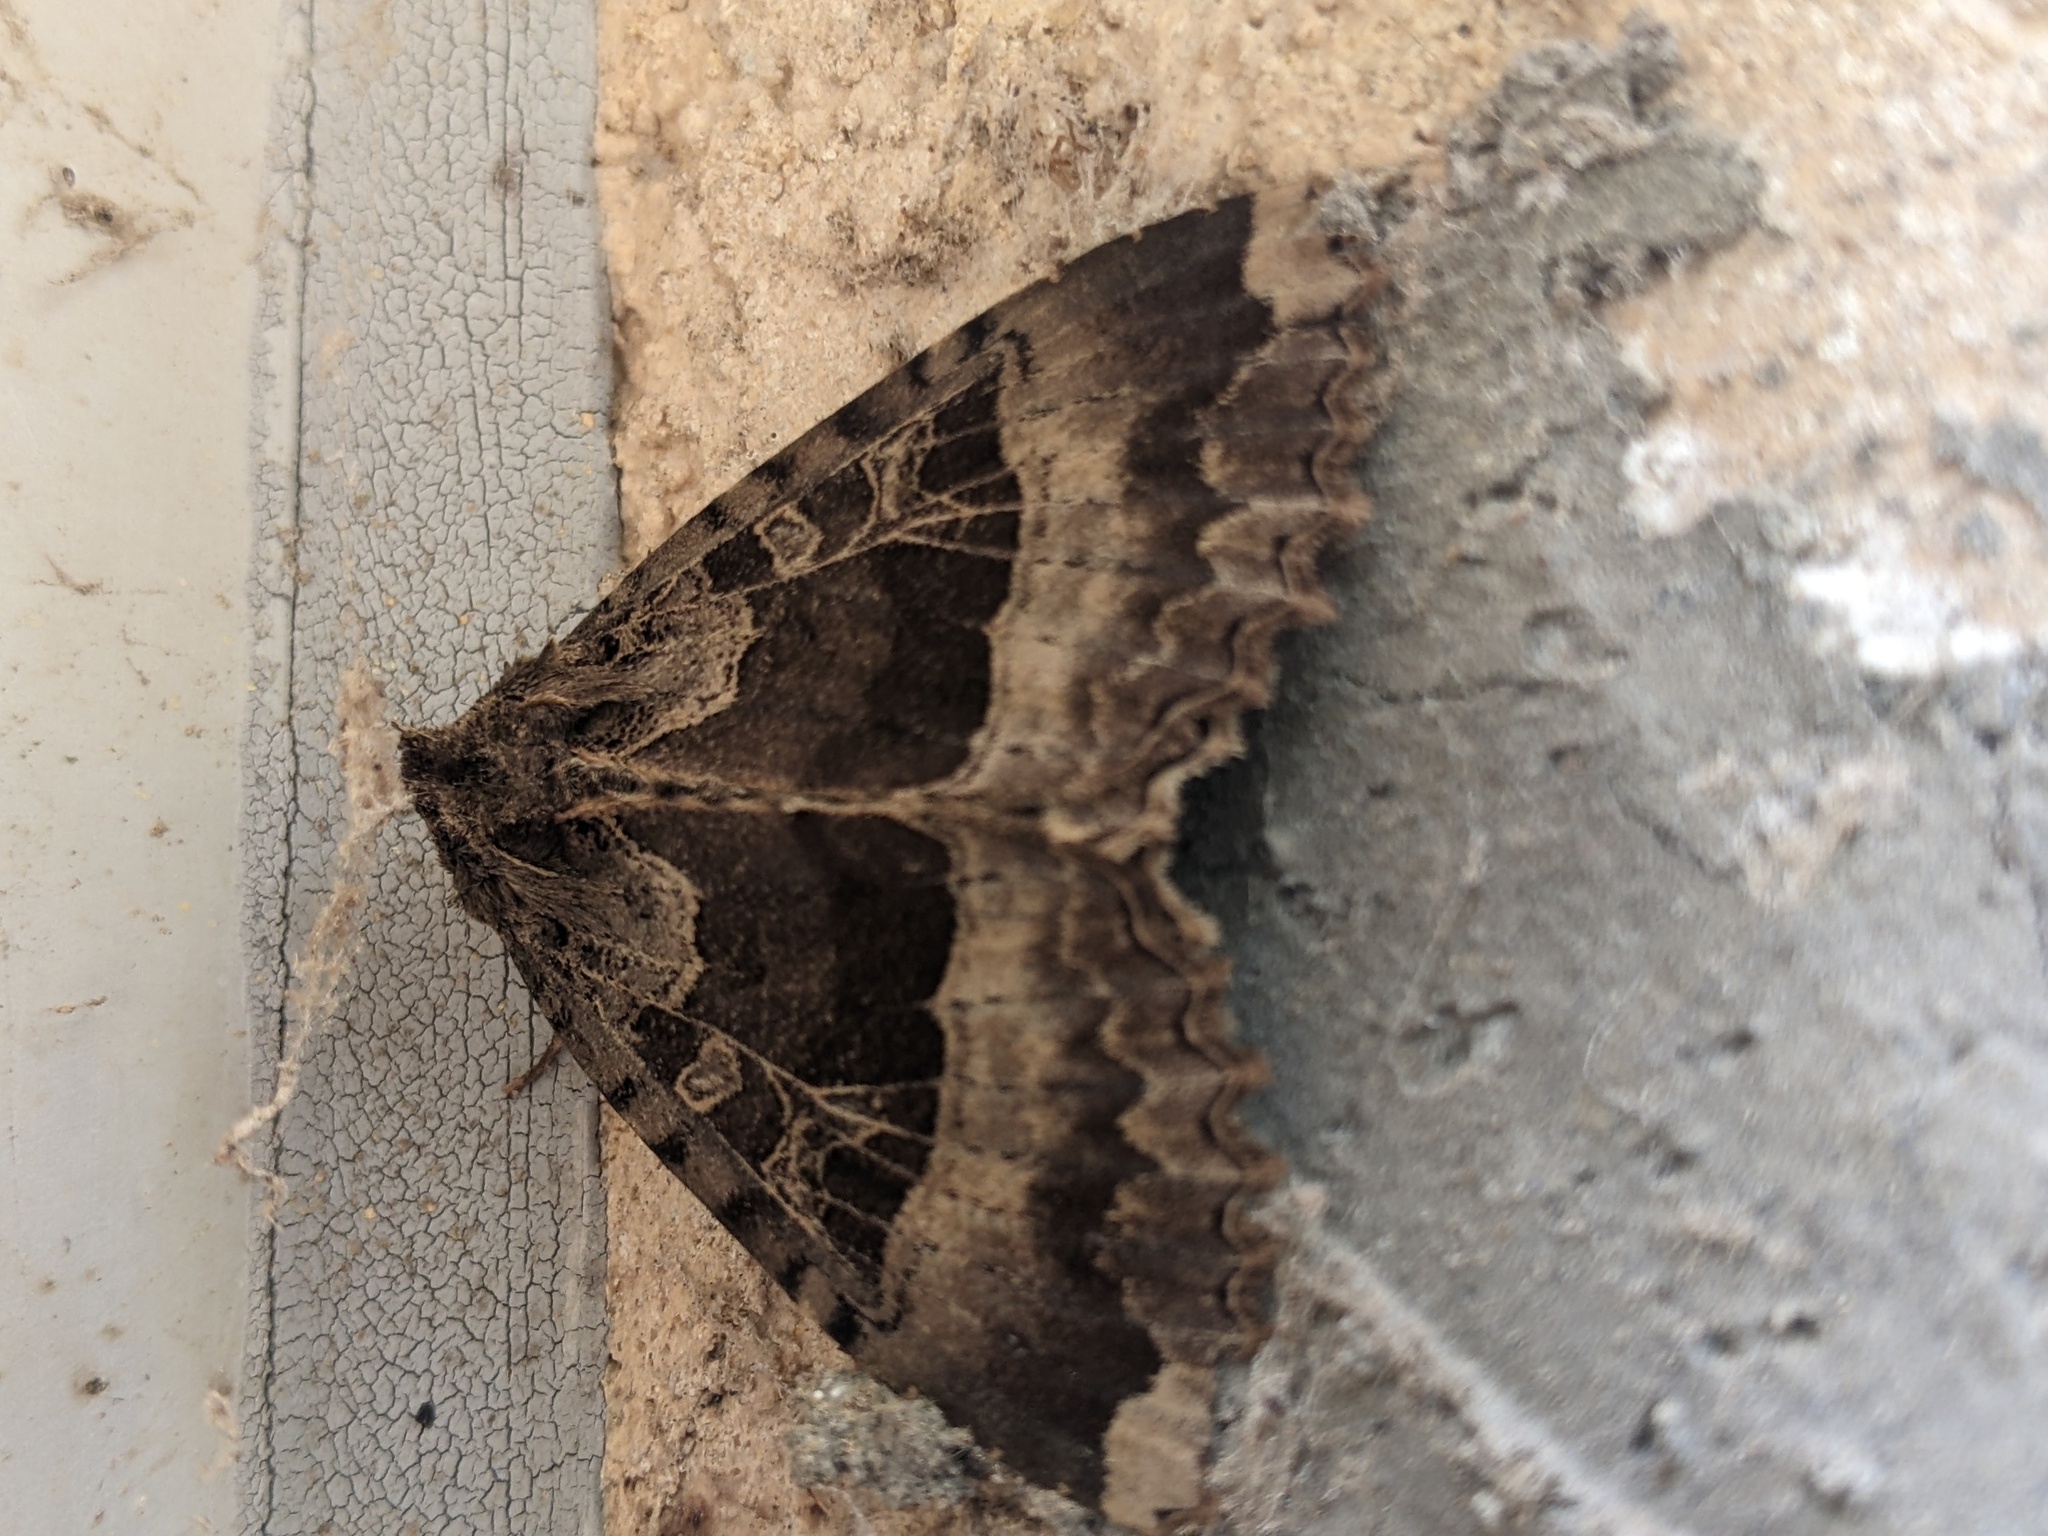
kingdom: Animalia
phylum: Arthropoda
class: Insecta
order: Lepidoptera
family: Noctuidae
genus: Mormo
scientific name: Mormo maura
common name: Old lady
